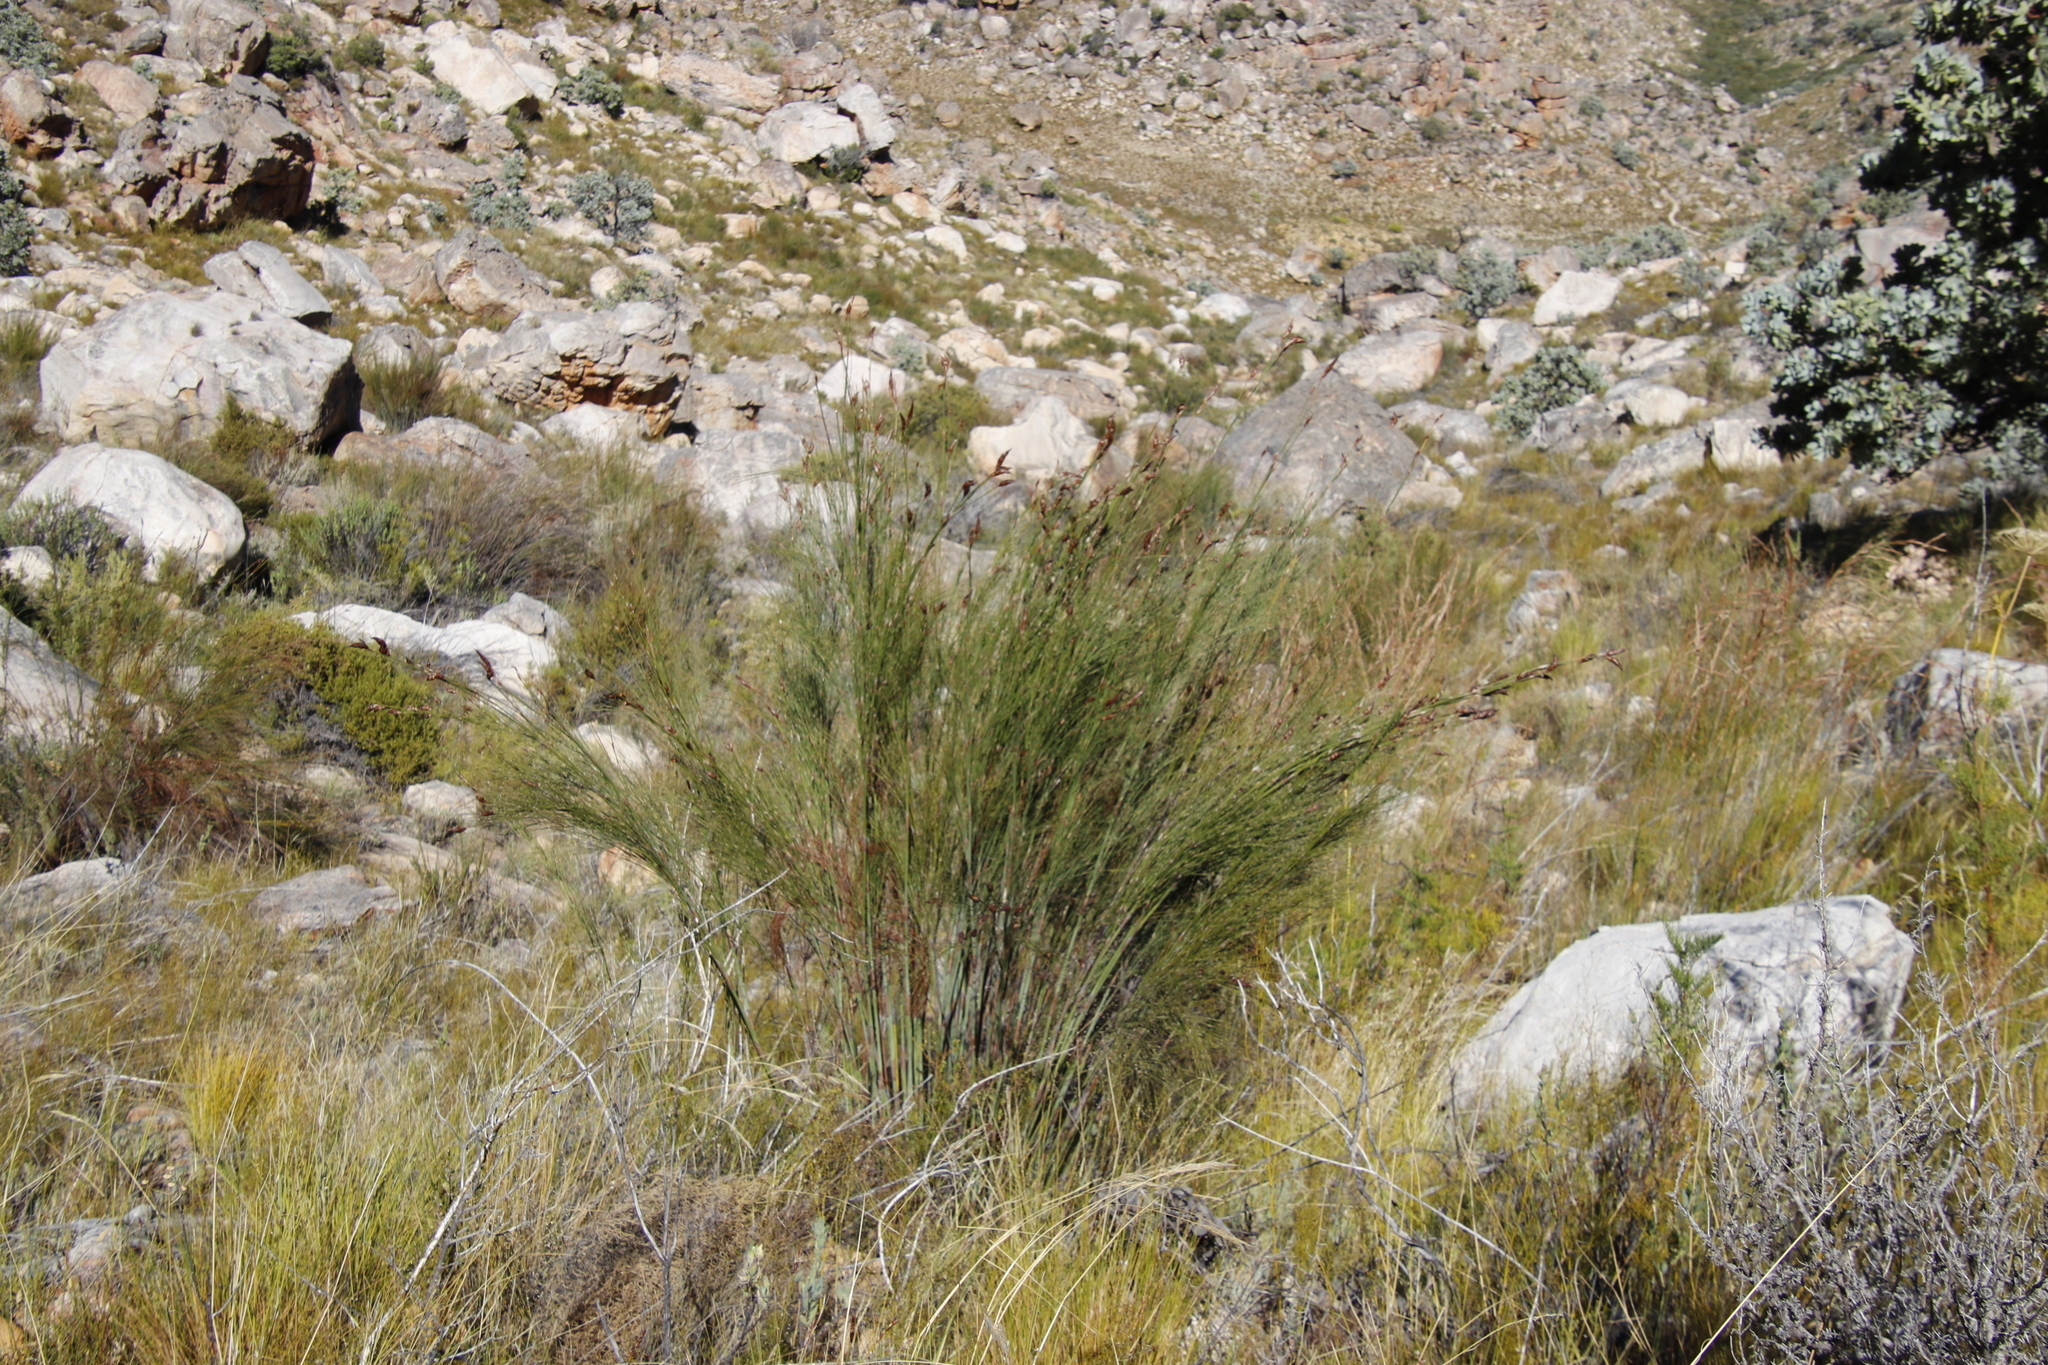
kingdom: Plantae
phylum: Tracheophyta
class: Liliopsida
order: Poales
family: Restionaceae
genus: Cannomois
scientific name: Cannomois robusta
